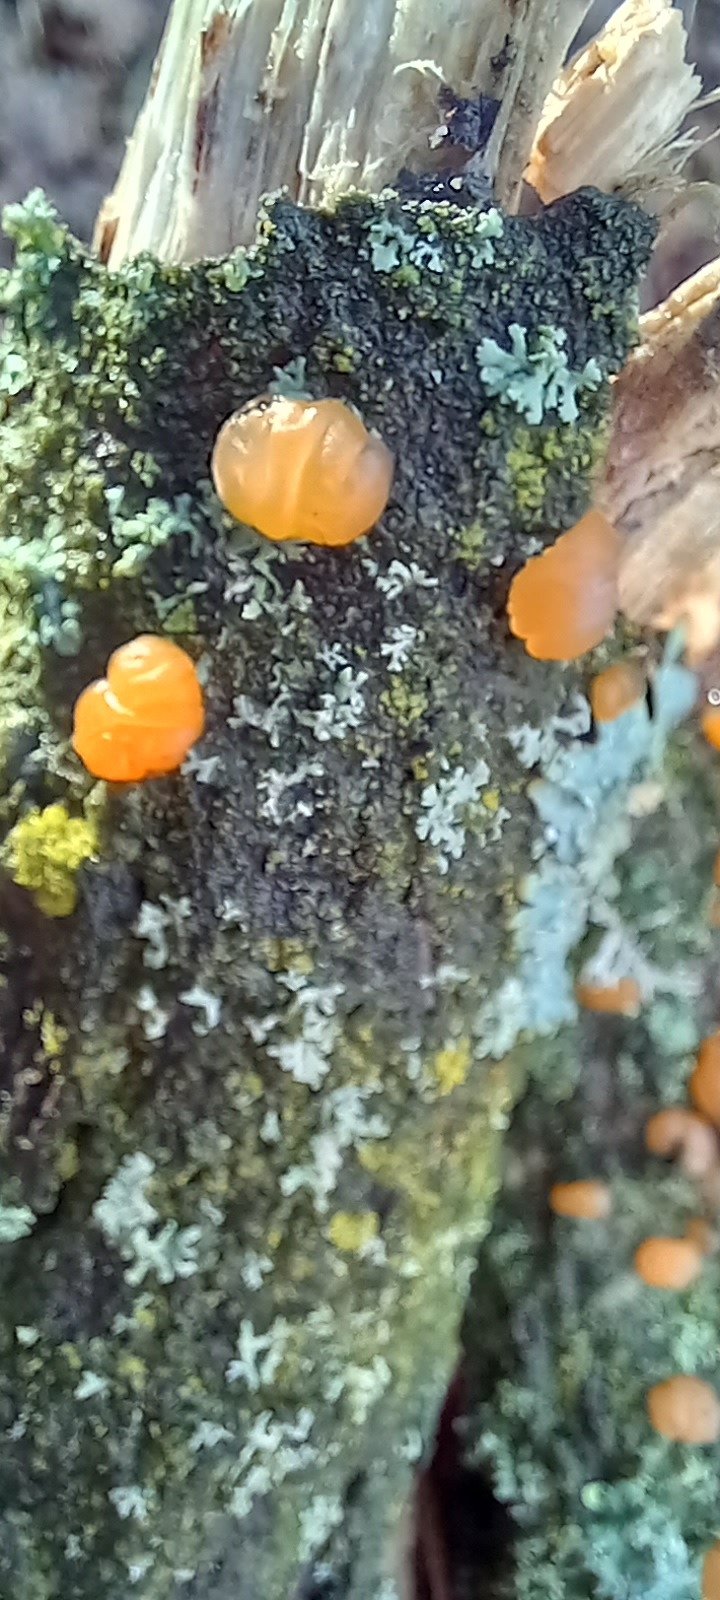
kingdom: Fungi
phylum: Basidiomycota
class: Dacrymycetes
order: Dacrymycetales
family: Dacrymycetaceae
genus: Dacrymyces
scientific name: Dacrymyces stillatus
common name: Common jelly spot
